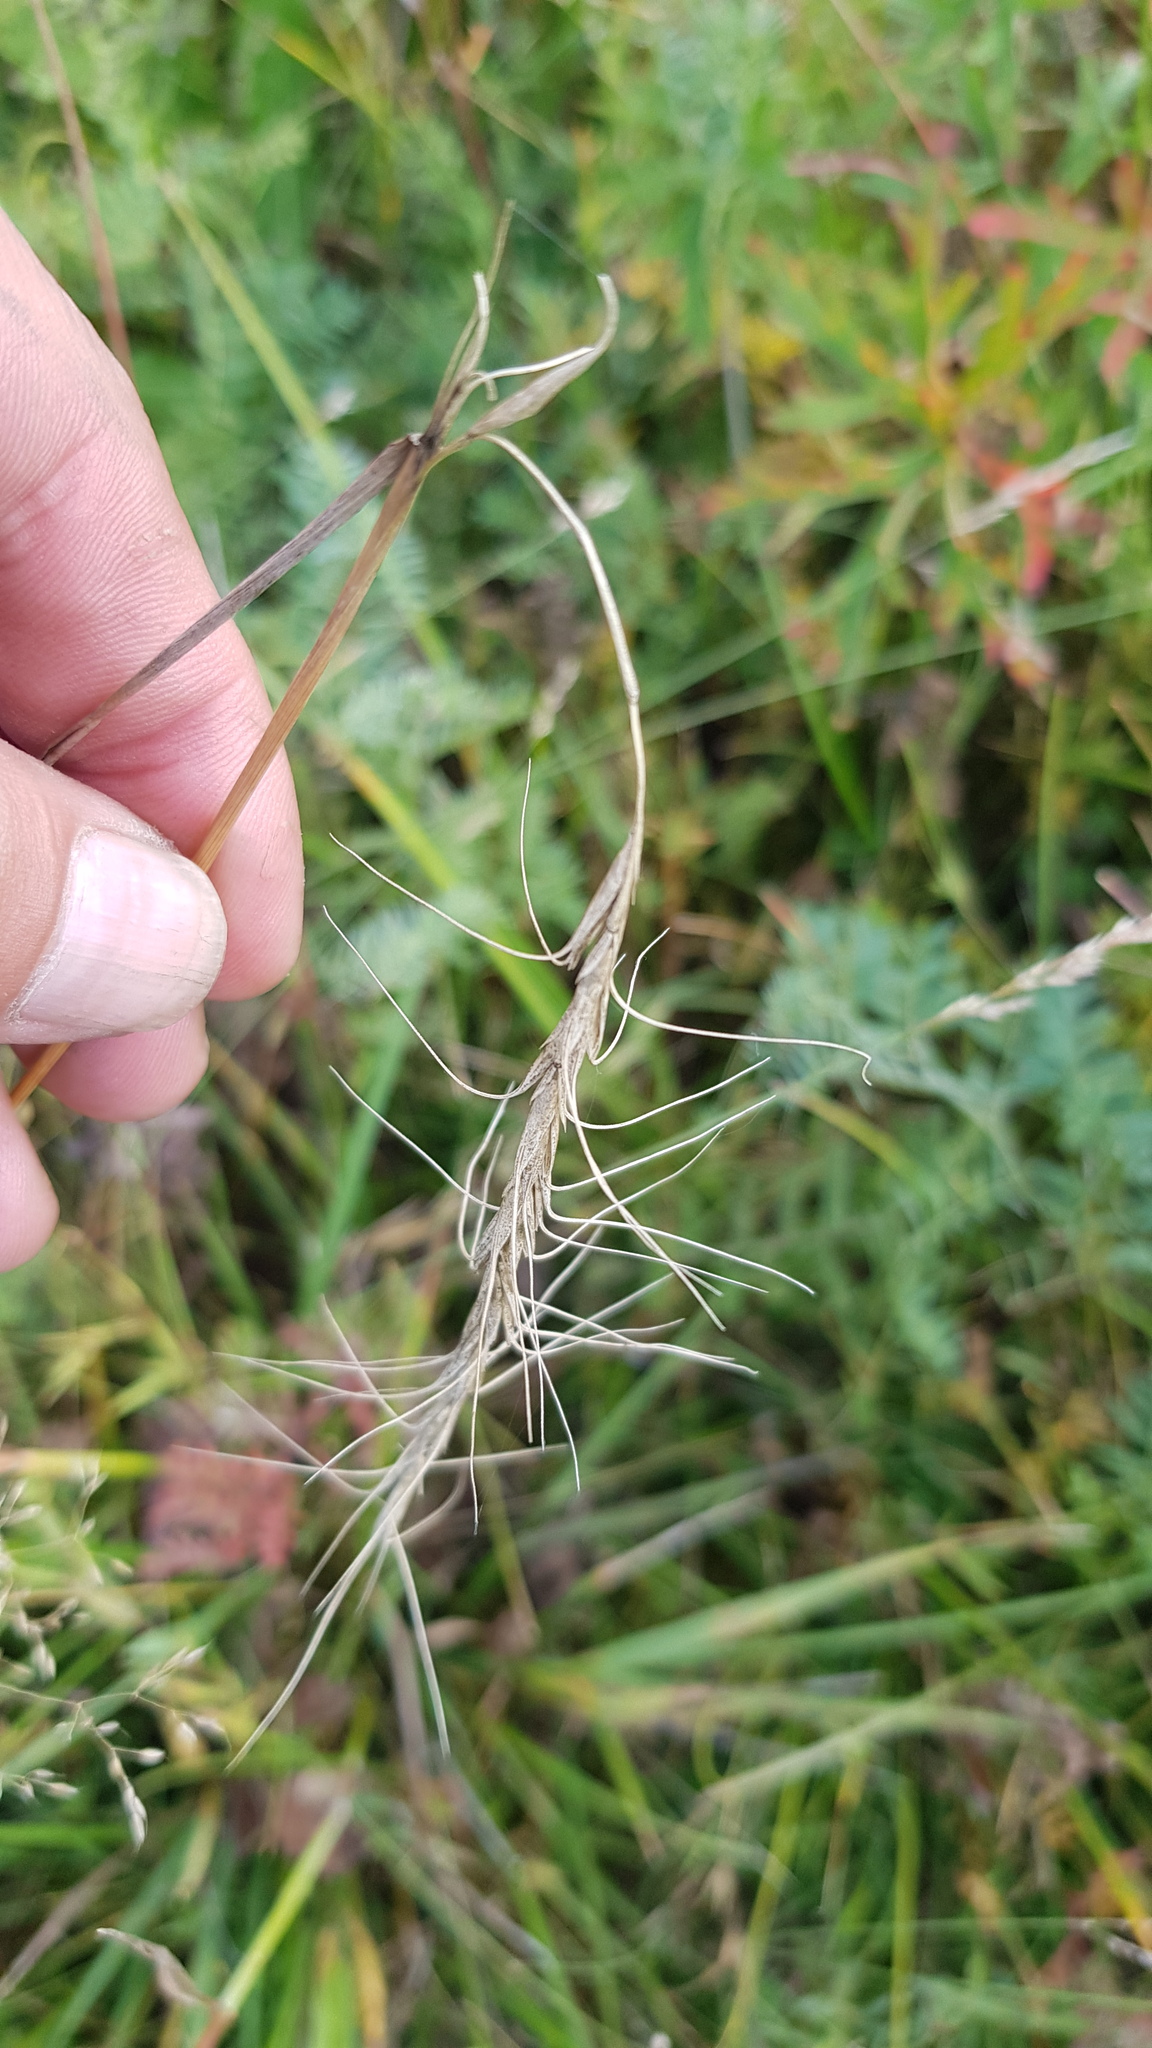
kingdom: Plantae
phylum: Tracheophyta
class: Liliopsida
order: Poales
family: Poaceae
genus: Achnatherum
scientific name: Achnatherum sibiricum
